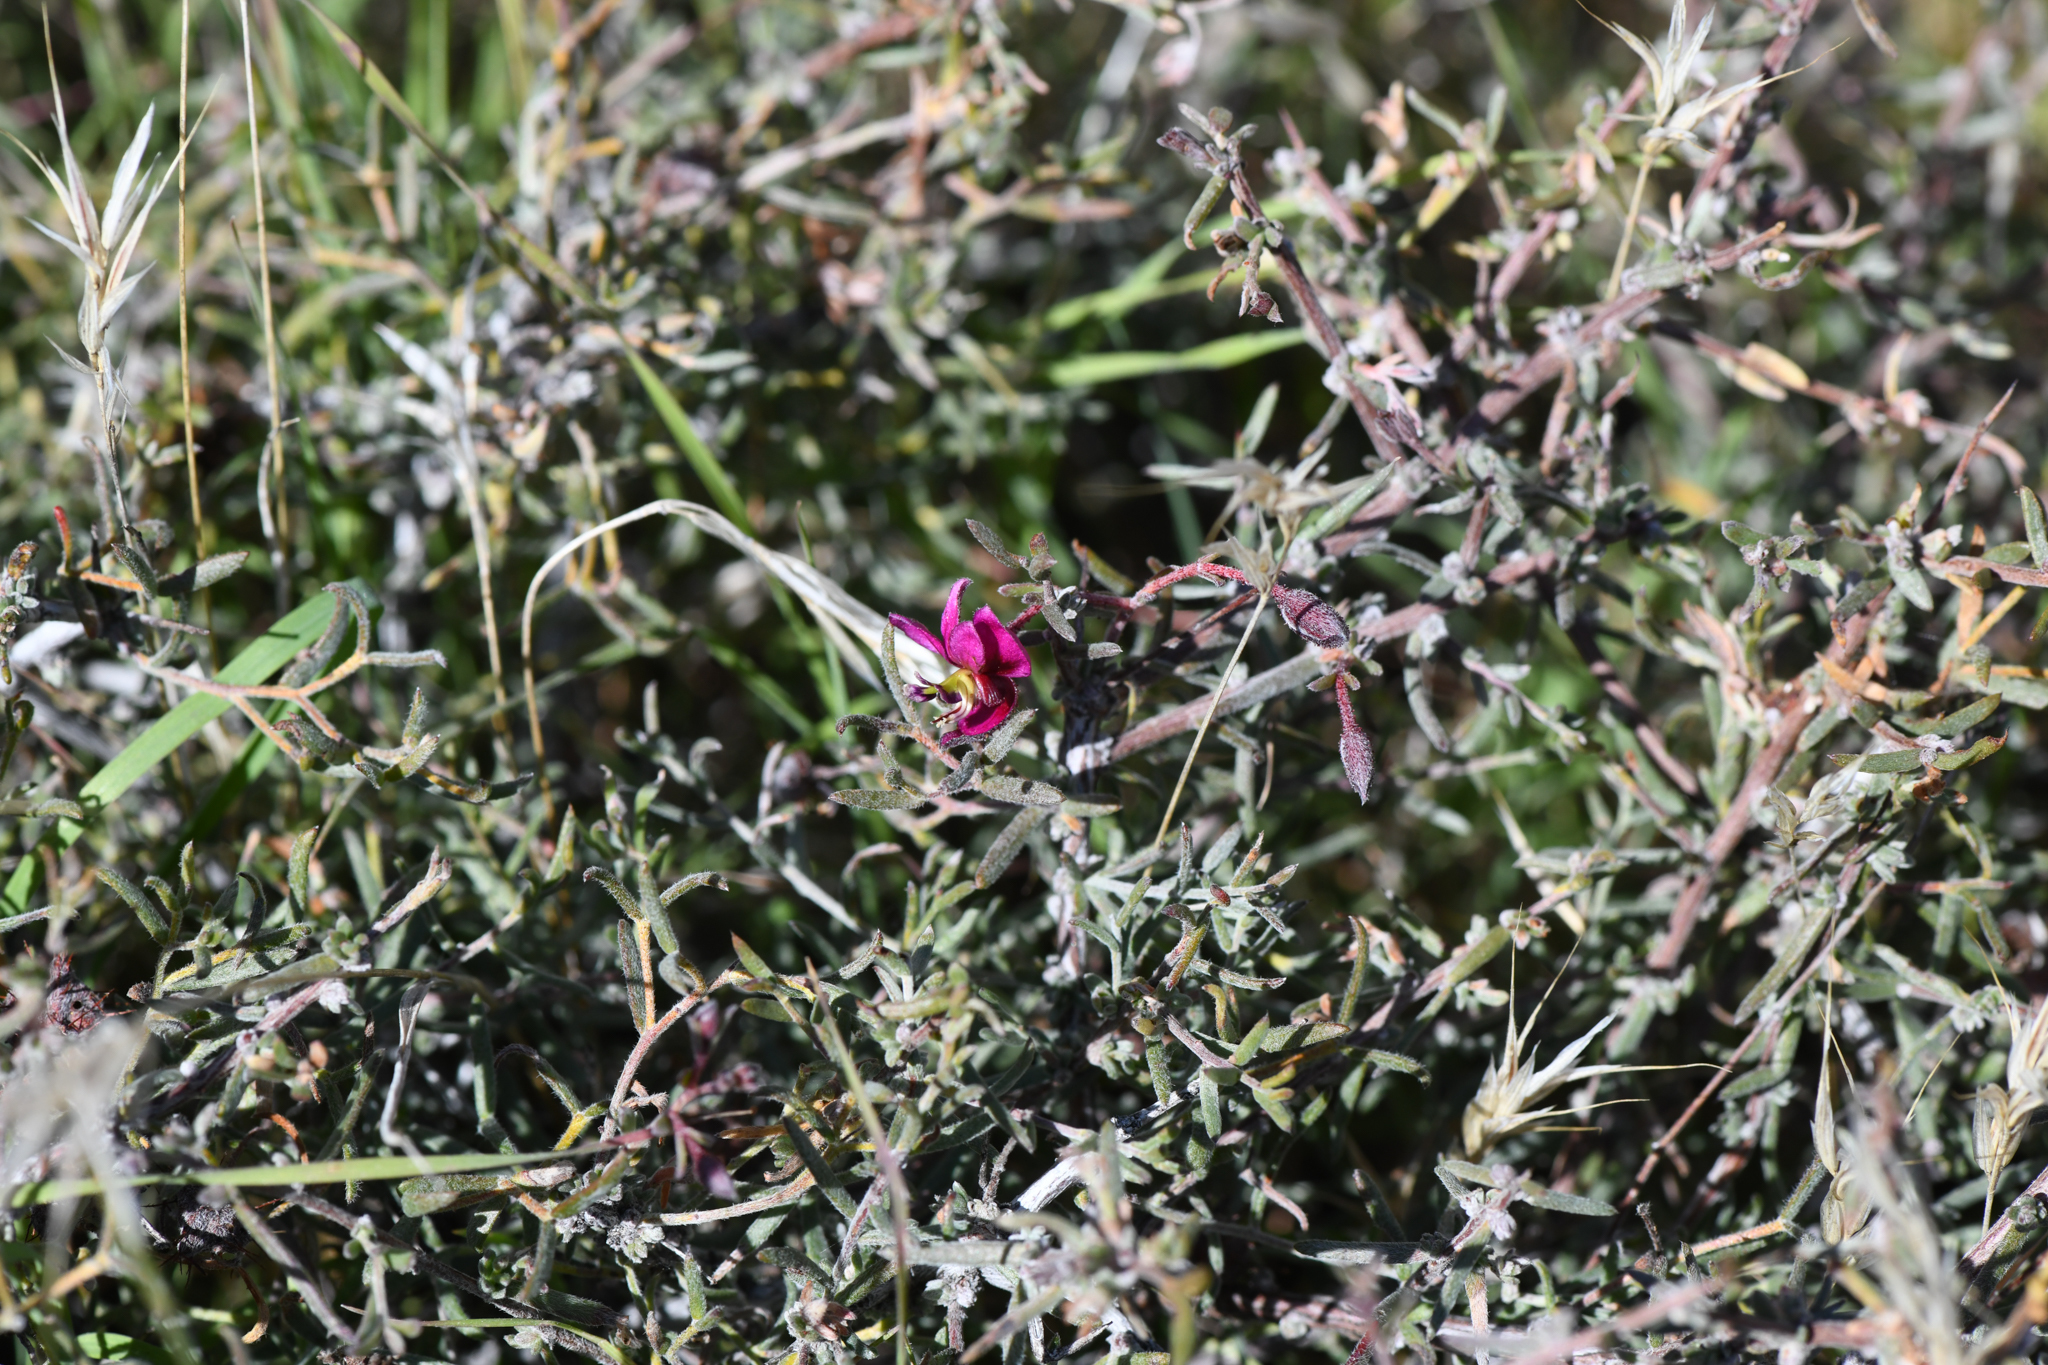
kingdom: Plantae
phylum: Tracheophyta
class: Magnoliopsida
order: Zygophyllales
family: Krameriaceae
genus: Krameria
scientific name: Krameria erecta
